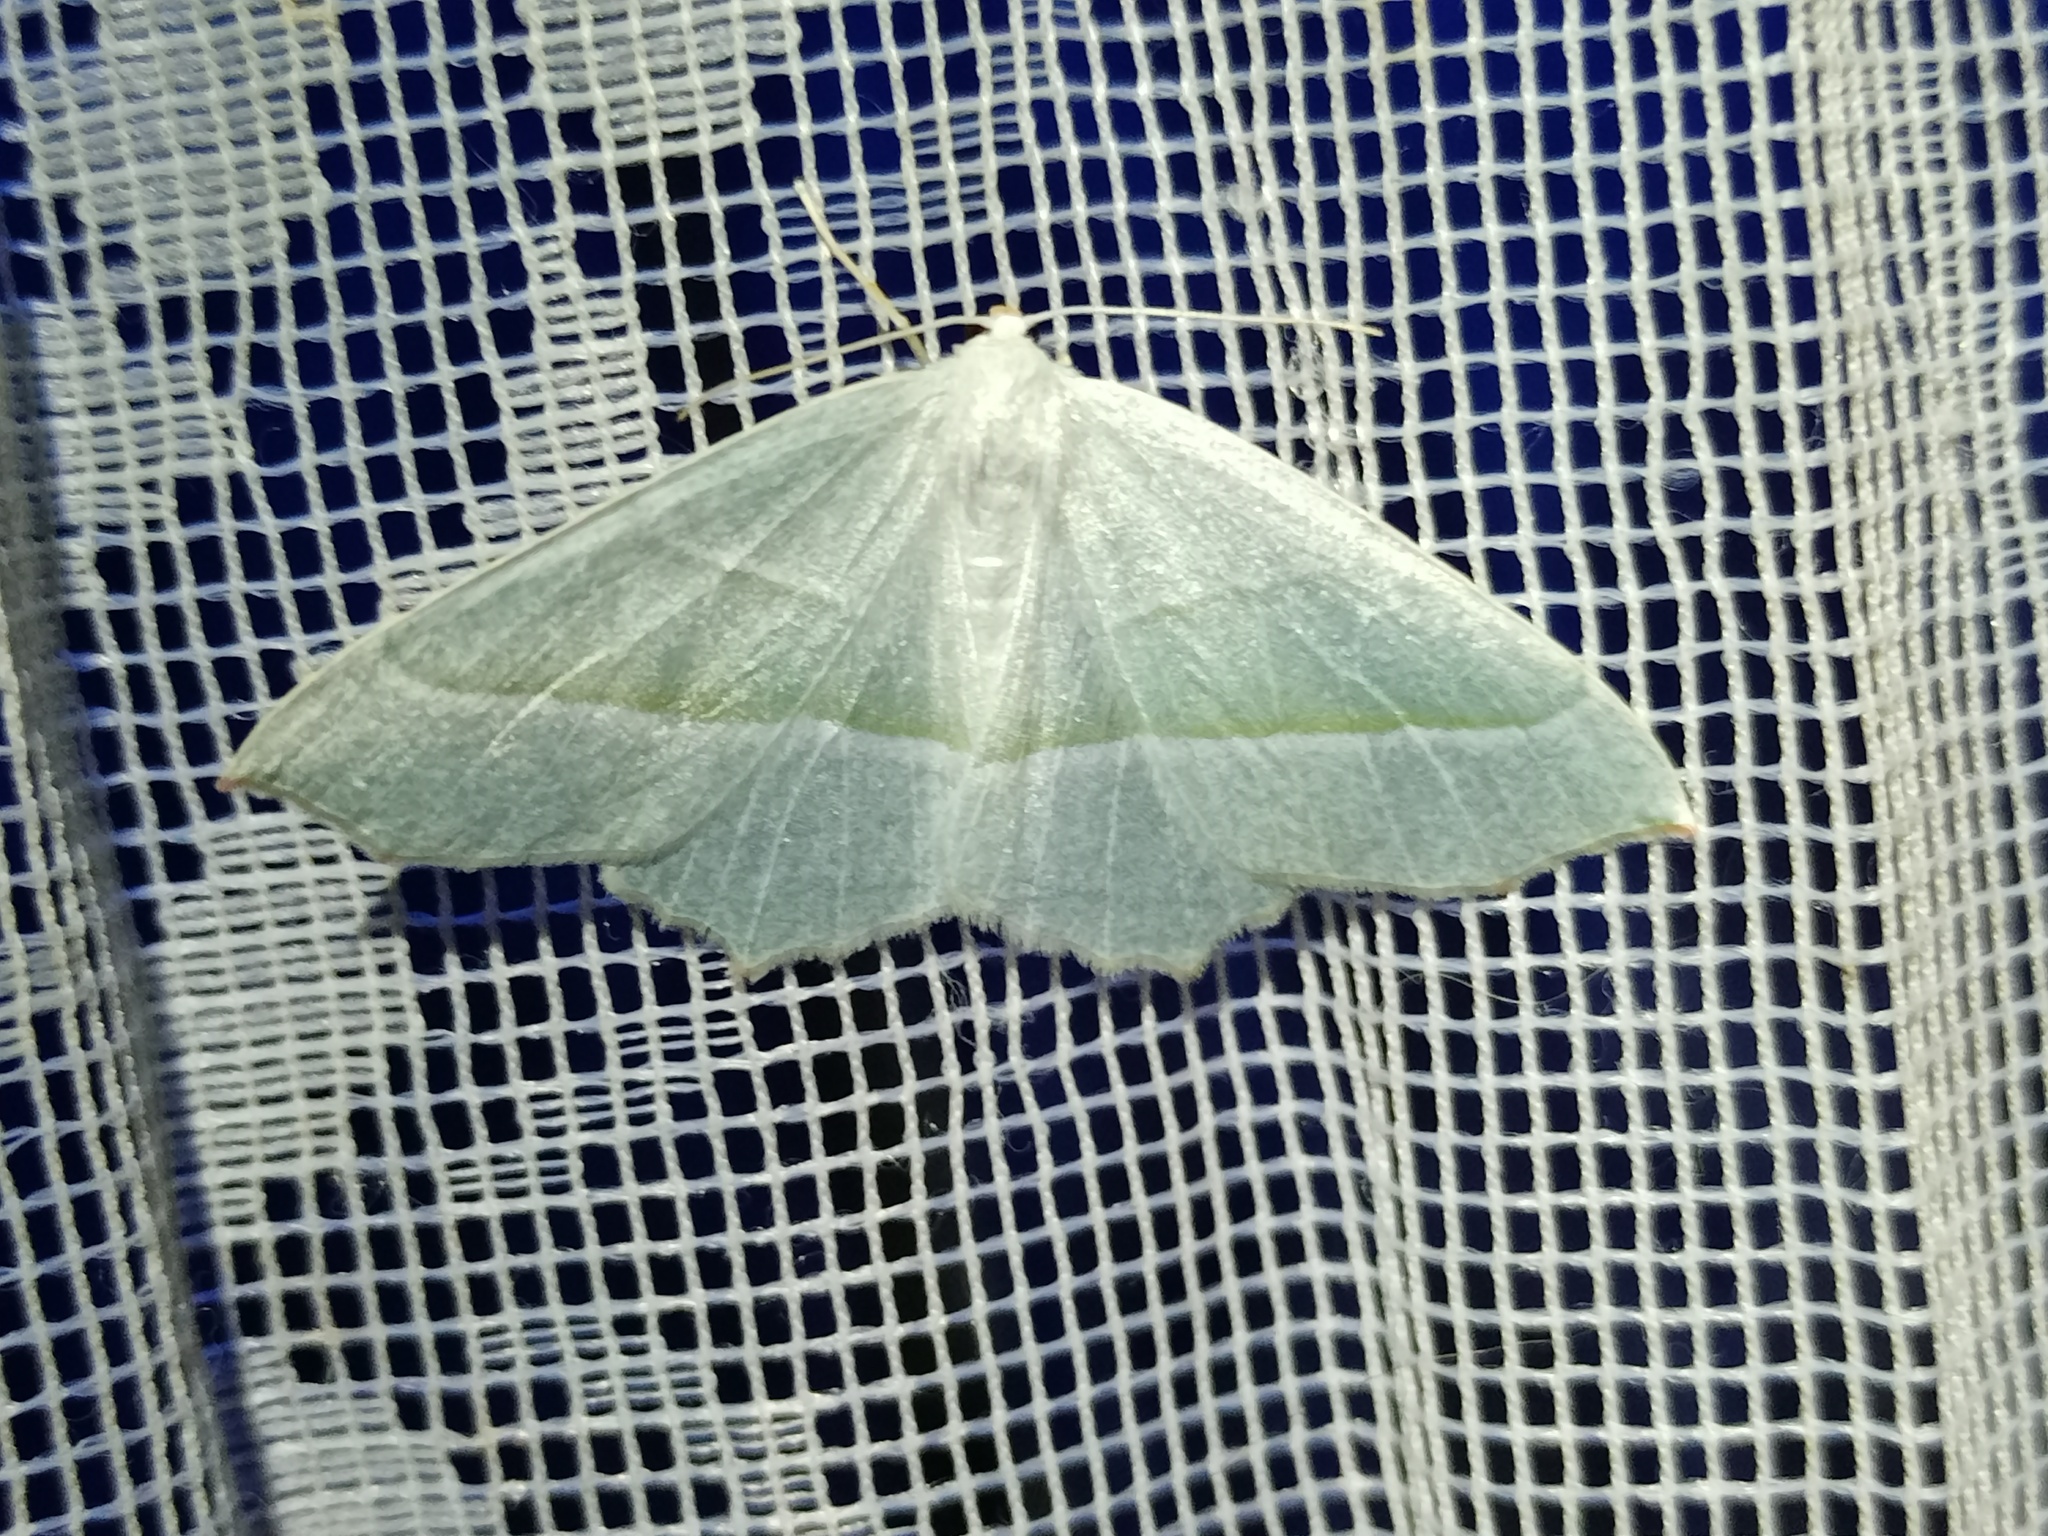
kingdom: Animalia
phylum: Arthropoda
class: Insecta
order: Lepidoptera
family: Geometridae
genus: Campaea
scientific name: Campaea margaritaria
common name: Light emerald
